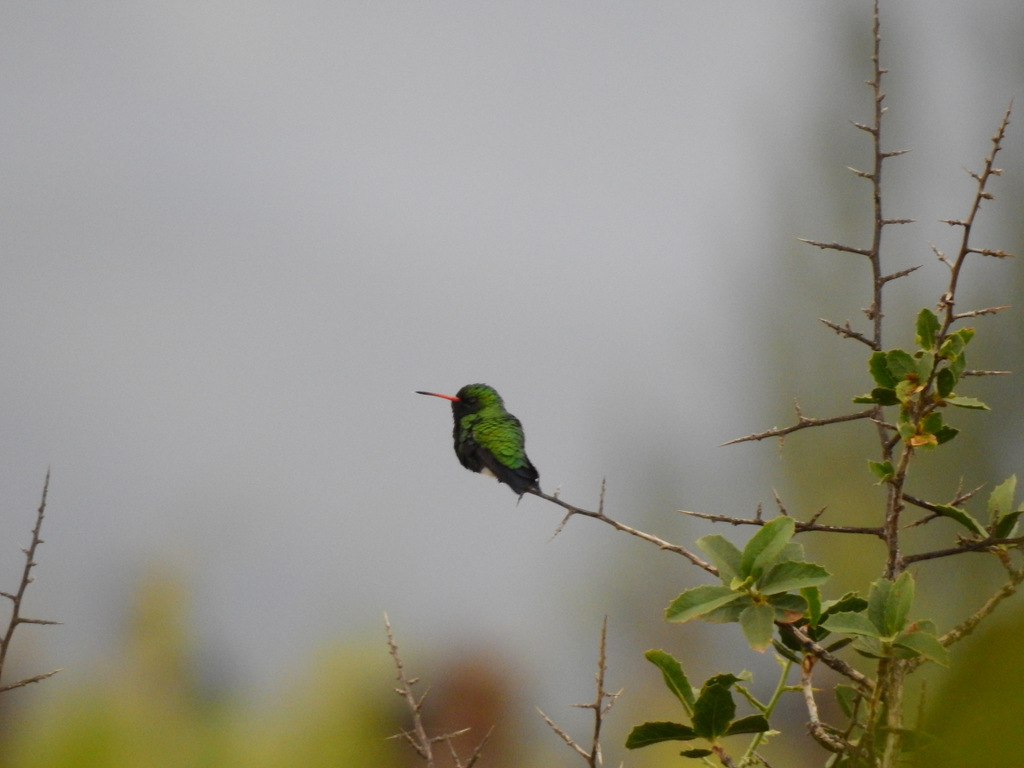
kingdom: Animalia
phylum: Chordata
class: Aves
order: Apodiformes
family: Trochilidae
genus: Chlorostilbon
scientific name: Chlorostilbon lucidus
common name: Glittering-bellied emerald
